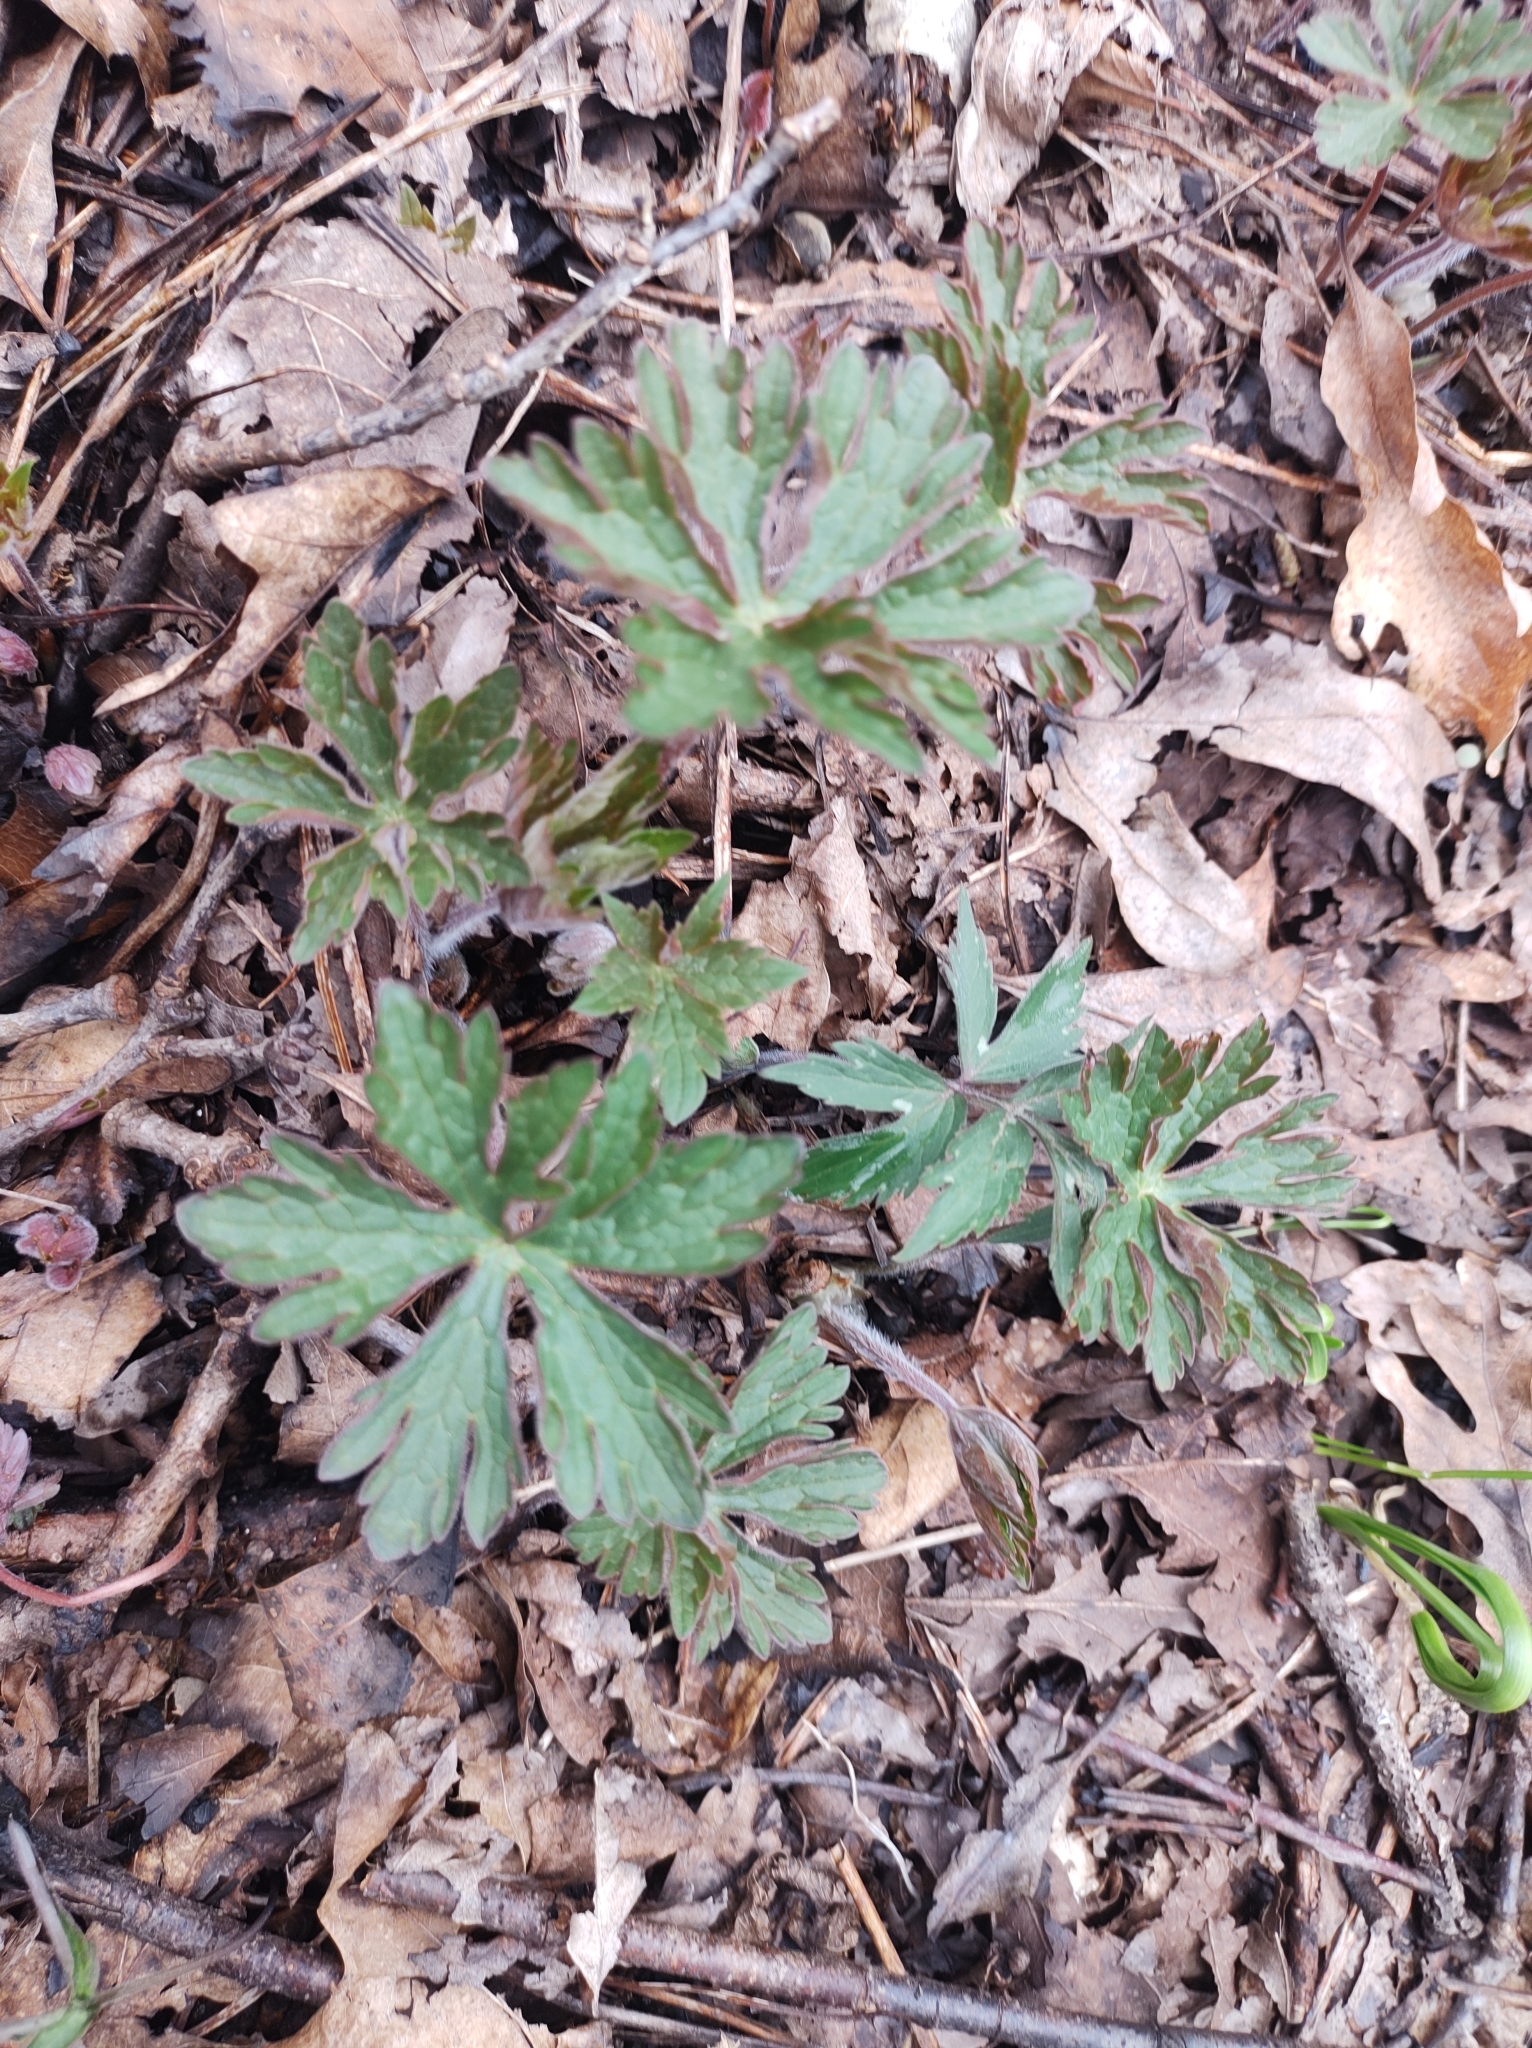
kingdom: Plantae
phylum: Tracheophyta
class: Magnoliopsida
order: Geraniales
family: Geraniaceae
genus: Geranium
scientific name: Geranium maculatum
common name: Spotted geranium
